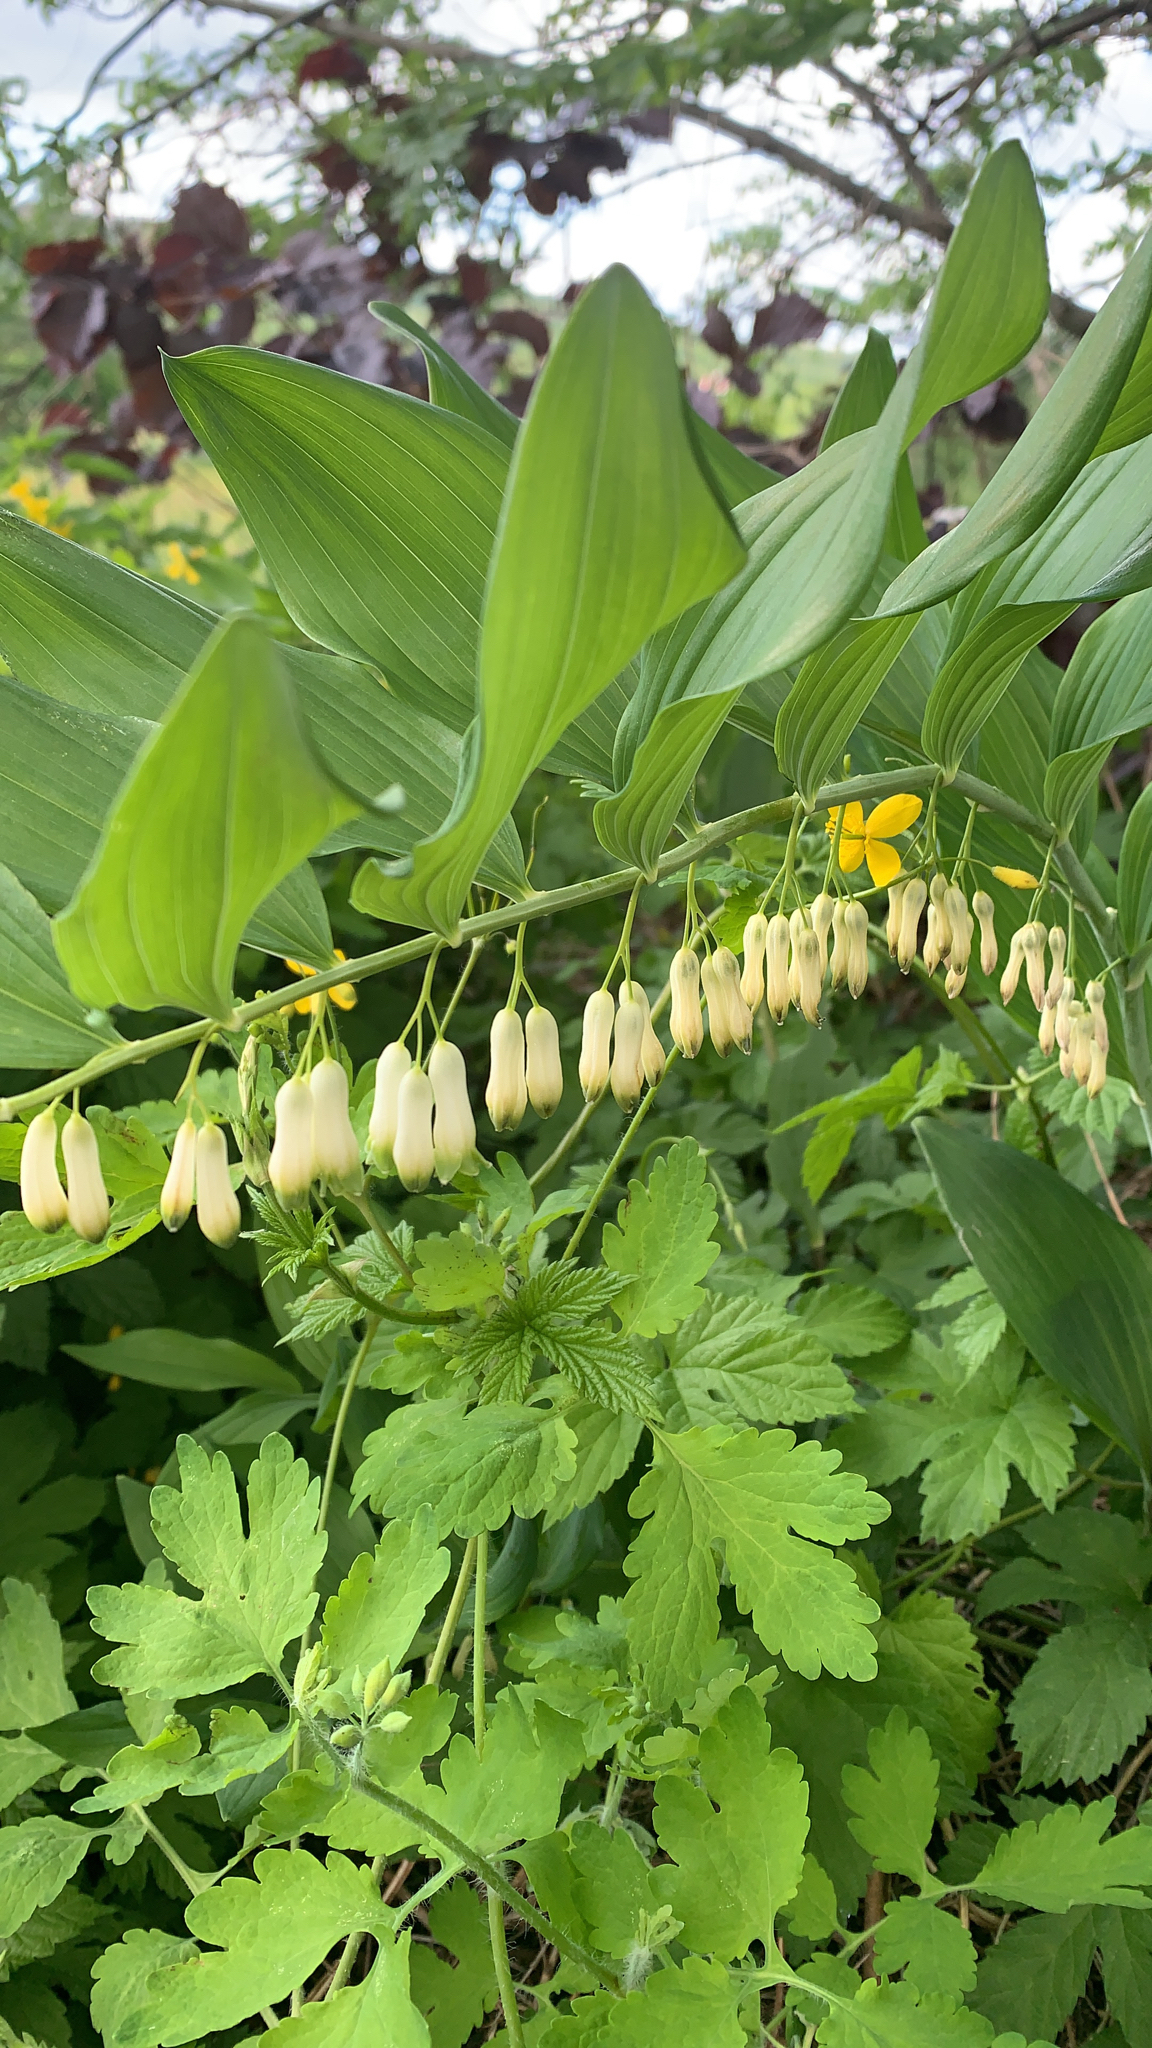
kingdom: Plantae
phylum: Tracheophyta
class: Liliopsida
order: Asparagales
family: Asparagaceae
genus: Polygonatum
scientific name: Polygonatum multiflorum
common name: Solomon's-seal
